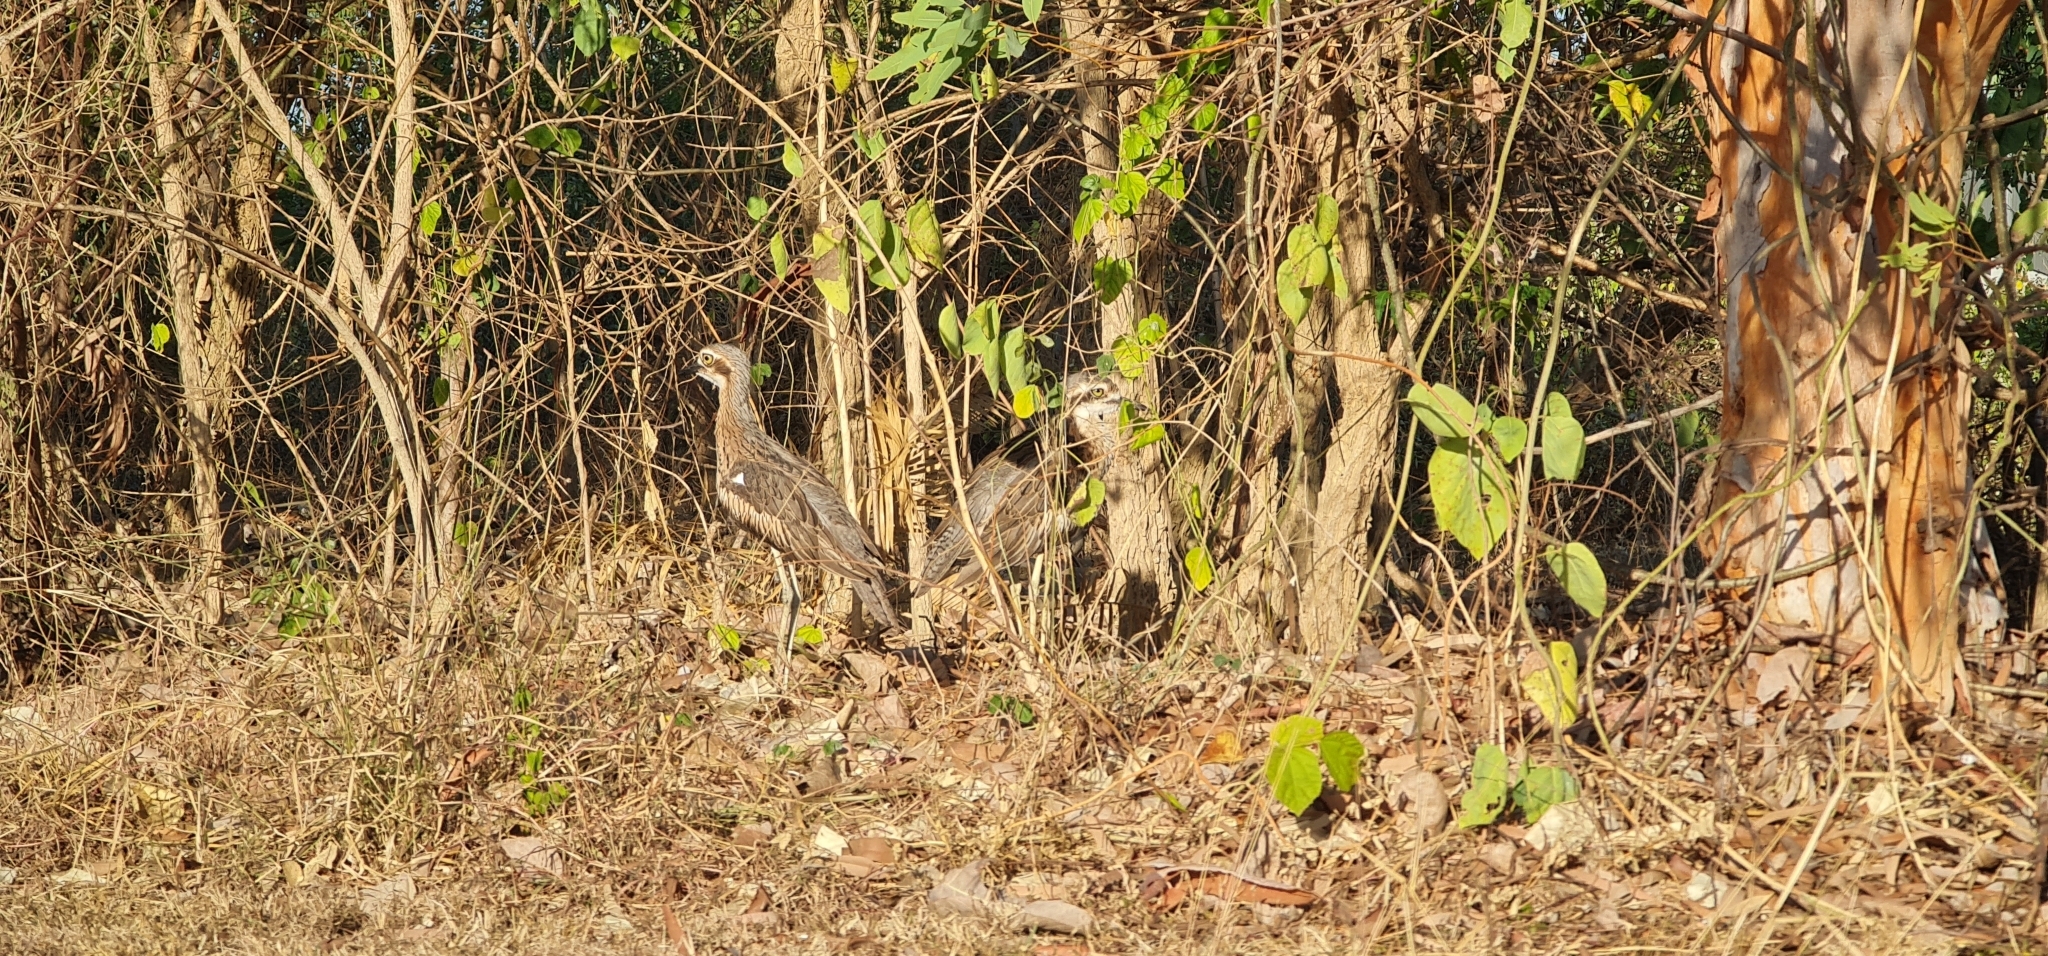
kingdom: Animalia
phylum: Chordata
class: Aves
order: Charadriiformes
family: Burhinidae
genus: Burhinus
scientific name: Burhinus grallarius
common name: Bush stone-curlew
